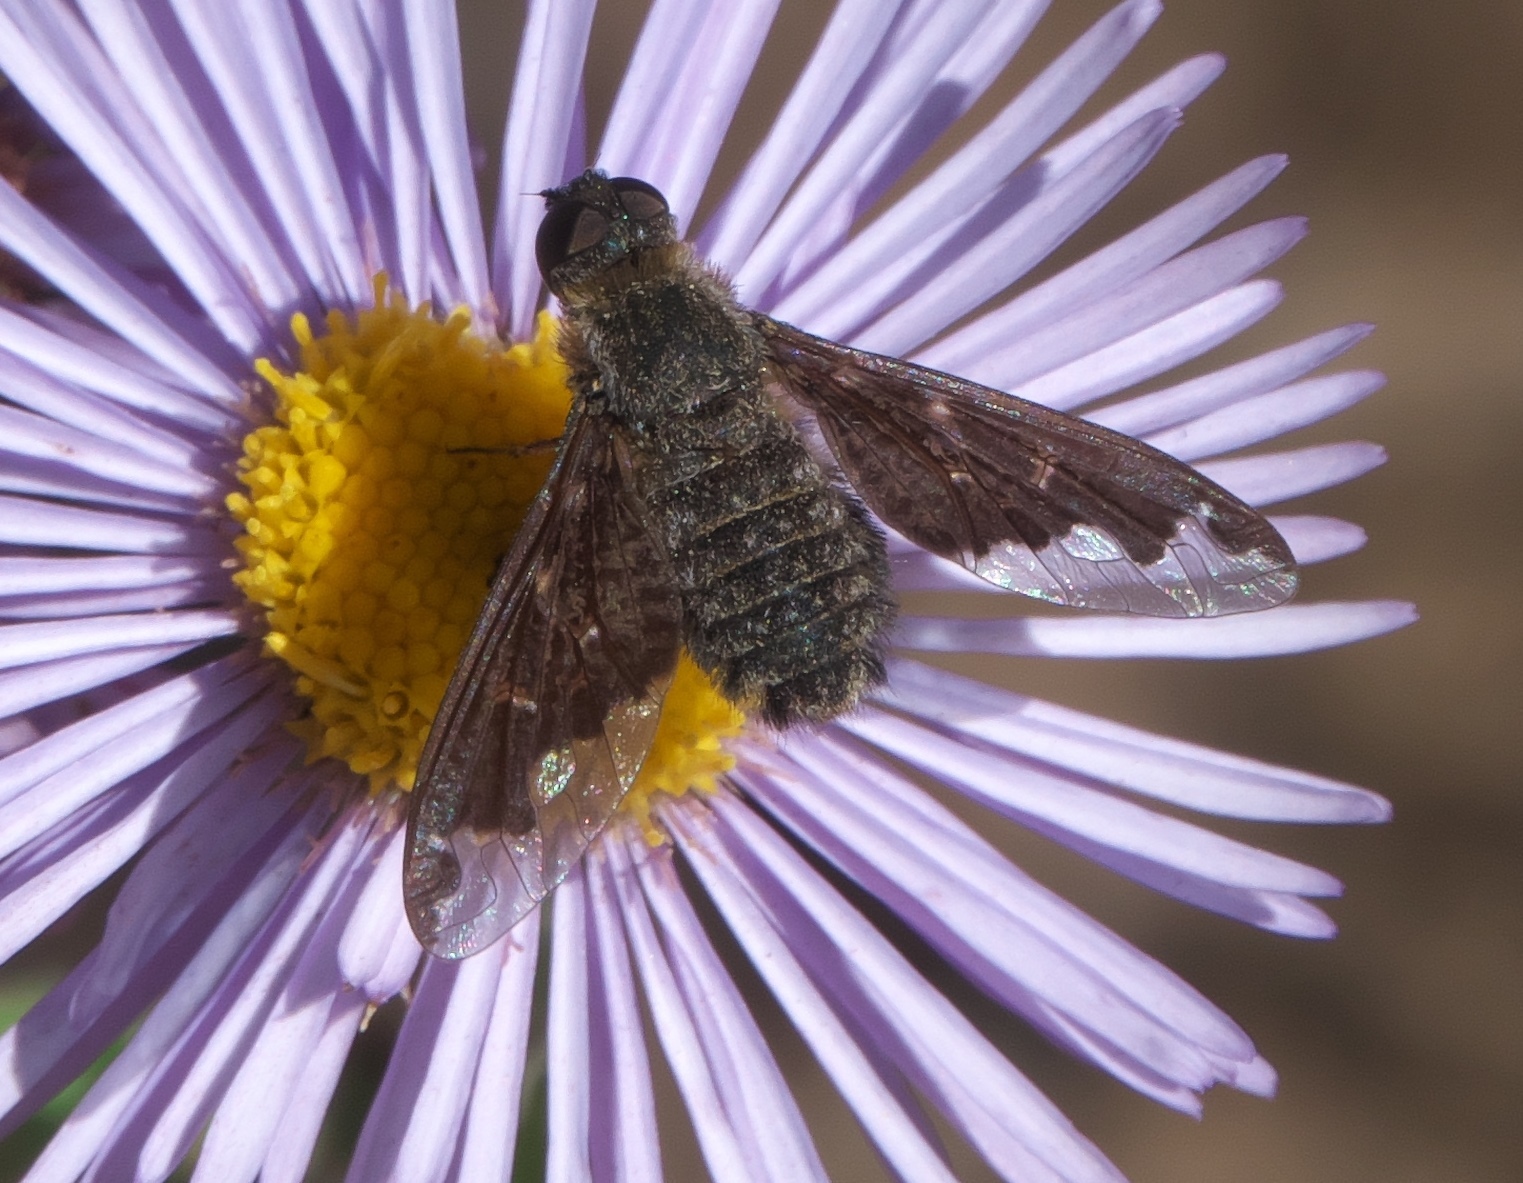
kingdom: Animalia
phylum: Arthropoda
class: Insecta
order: Diptera
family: Bombyliidae
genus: Hemipenthes
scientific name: Hemipenthes sinuosus
